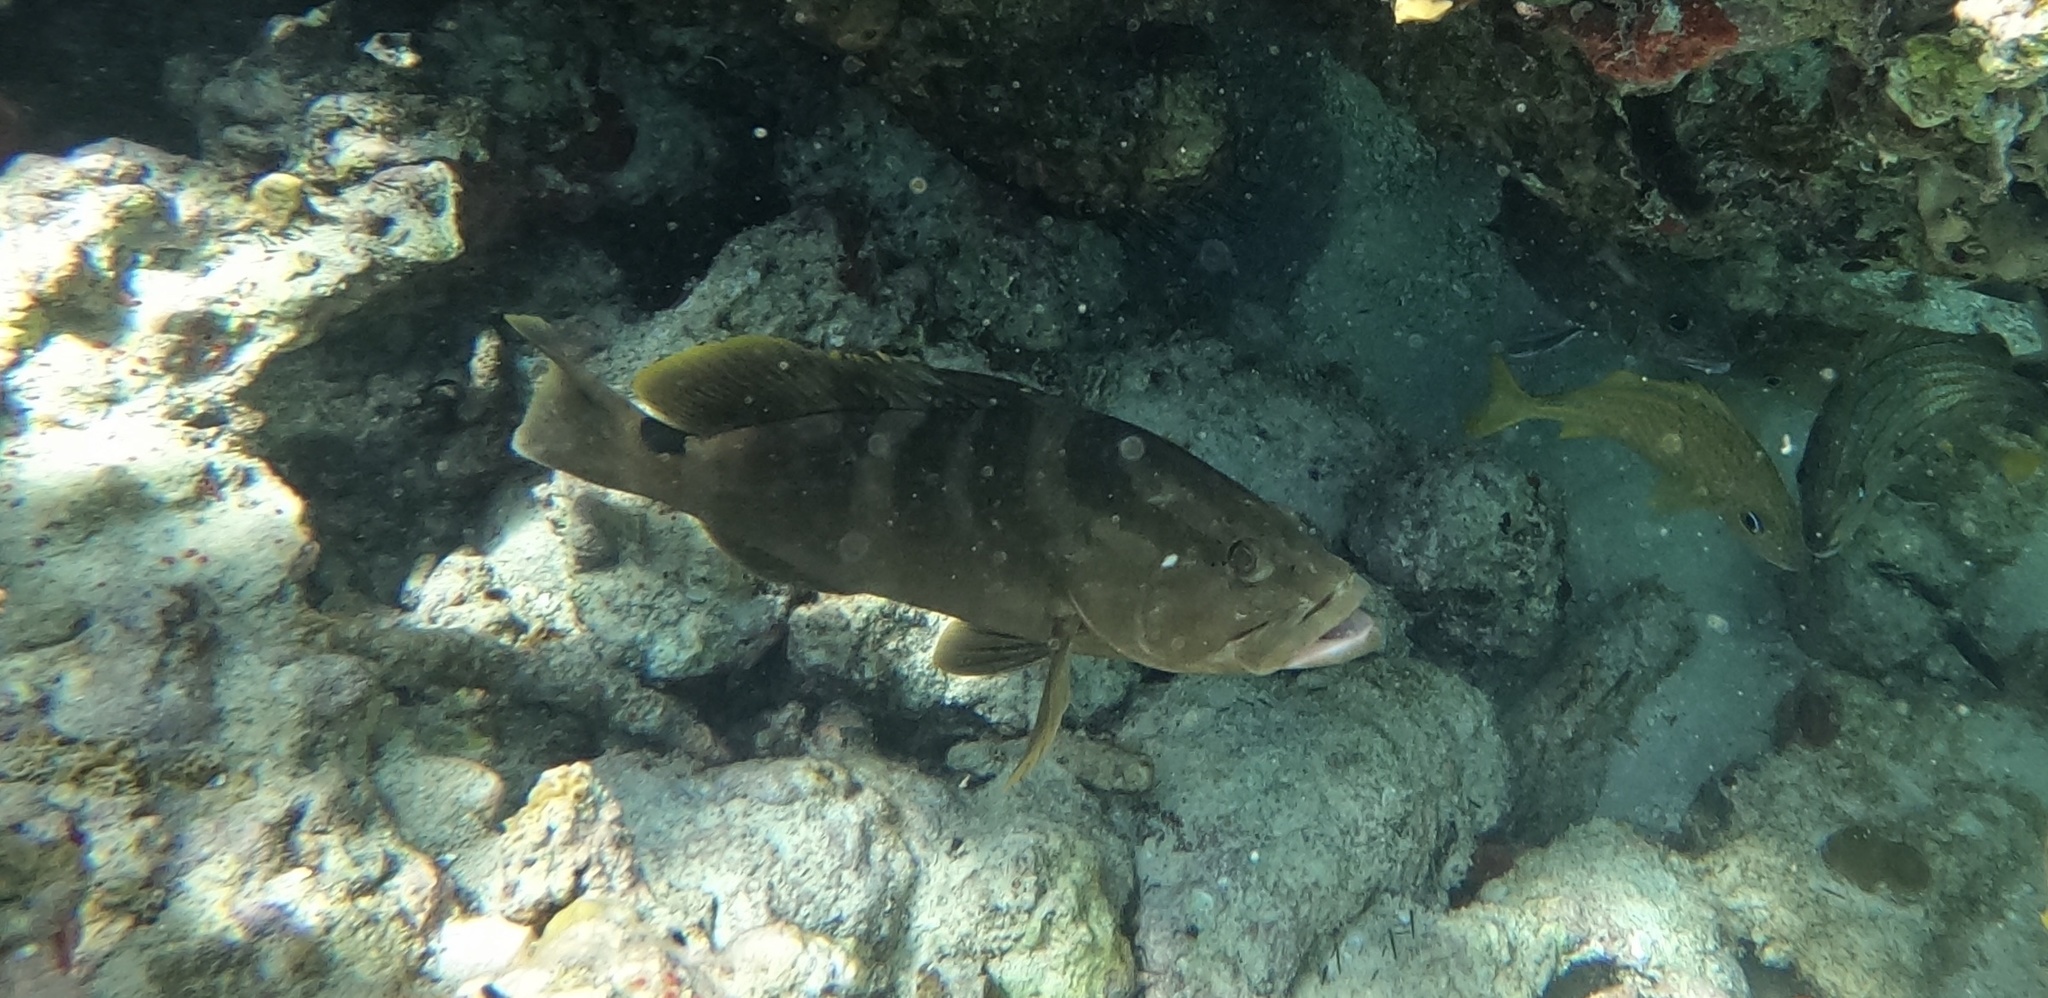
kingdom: Animalia
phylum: Chordata
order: Perciformes
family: Serranidae
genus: Epinephelus
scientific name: Epinephelus striatus
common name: Nassau grouper
